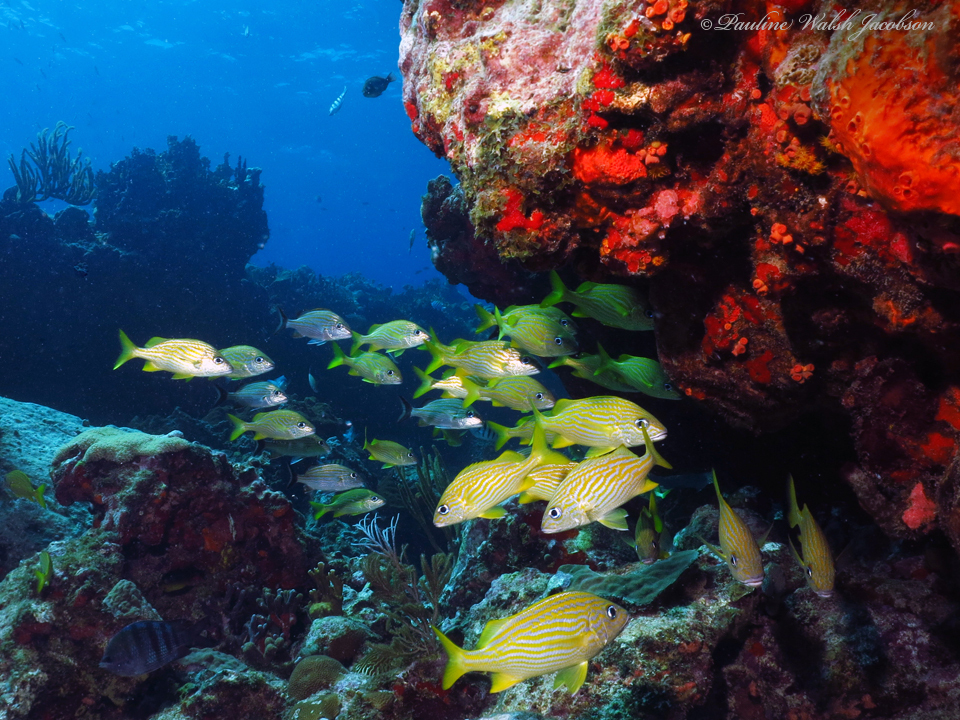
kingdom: Animalia
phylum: Chordata
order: Perciformes
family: Haemulidae
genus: Haemulon
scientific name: Haemulon flavolineatum
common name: French grunt
